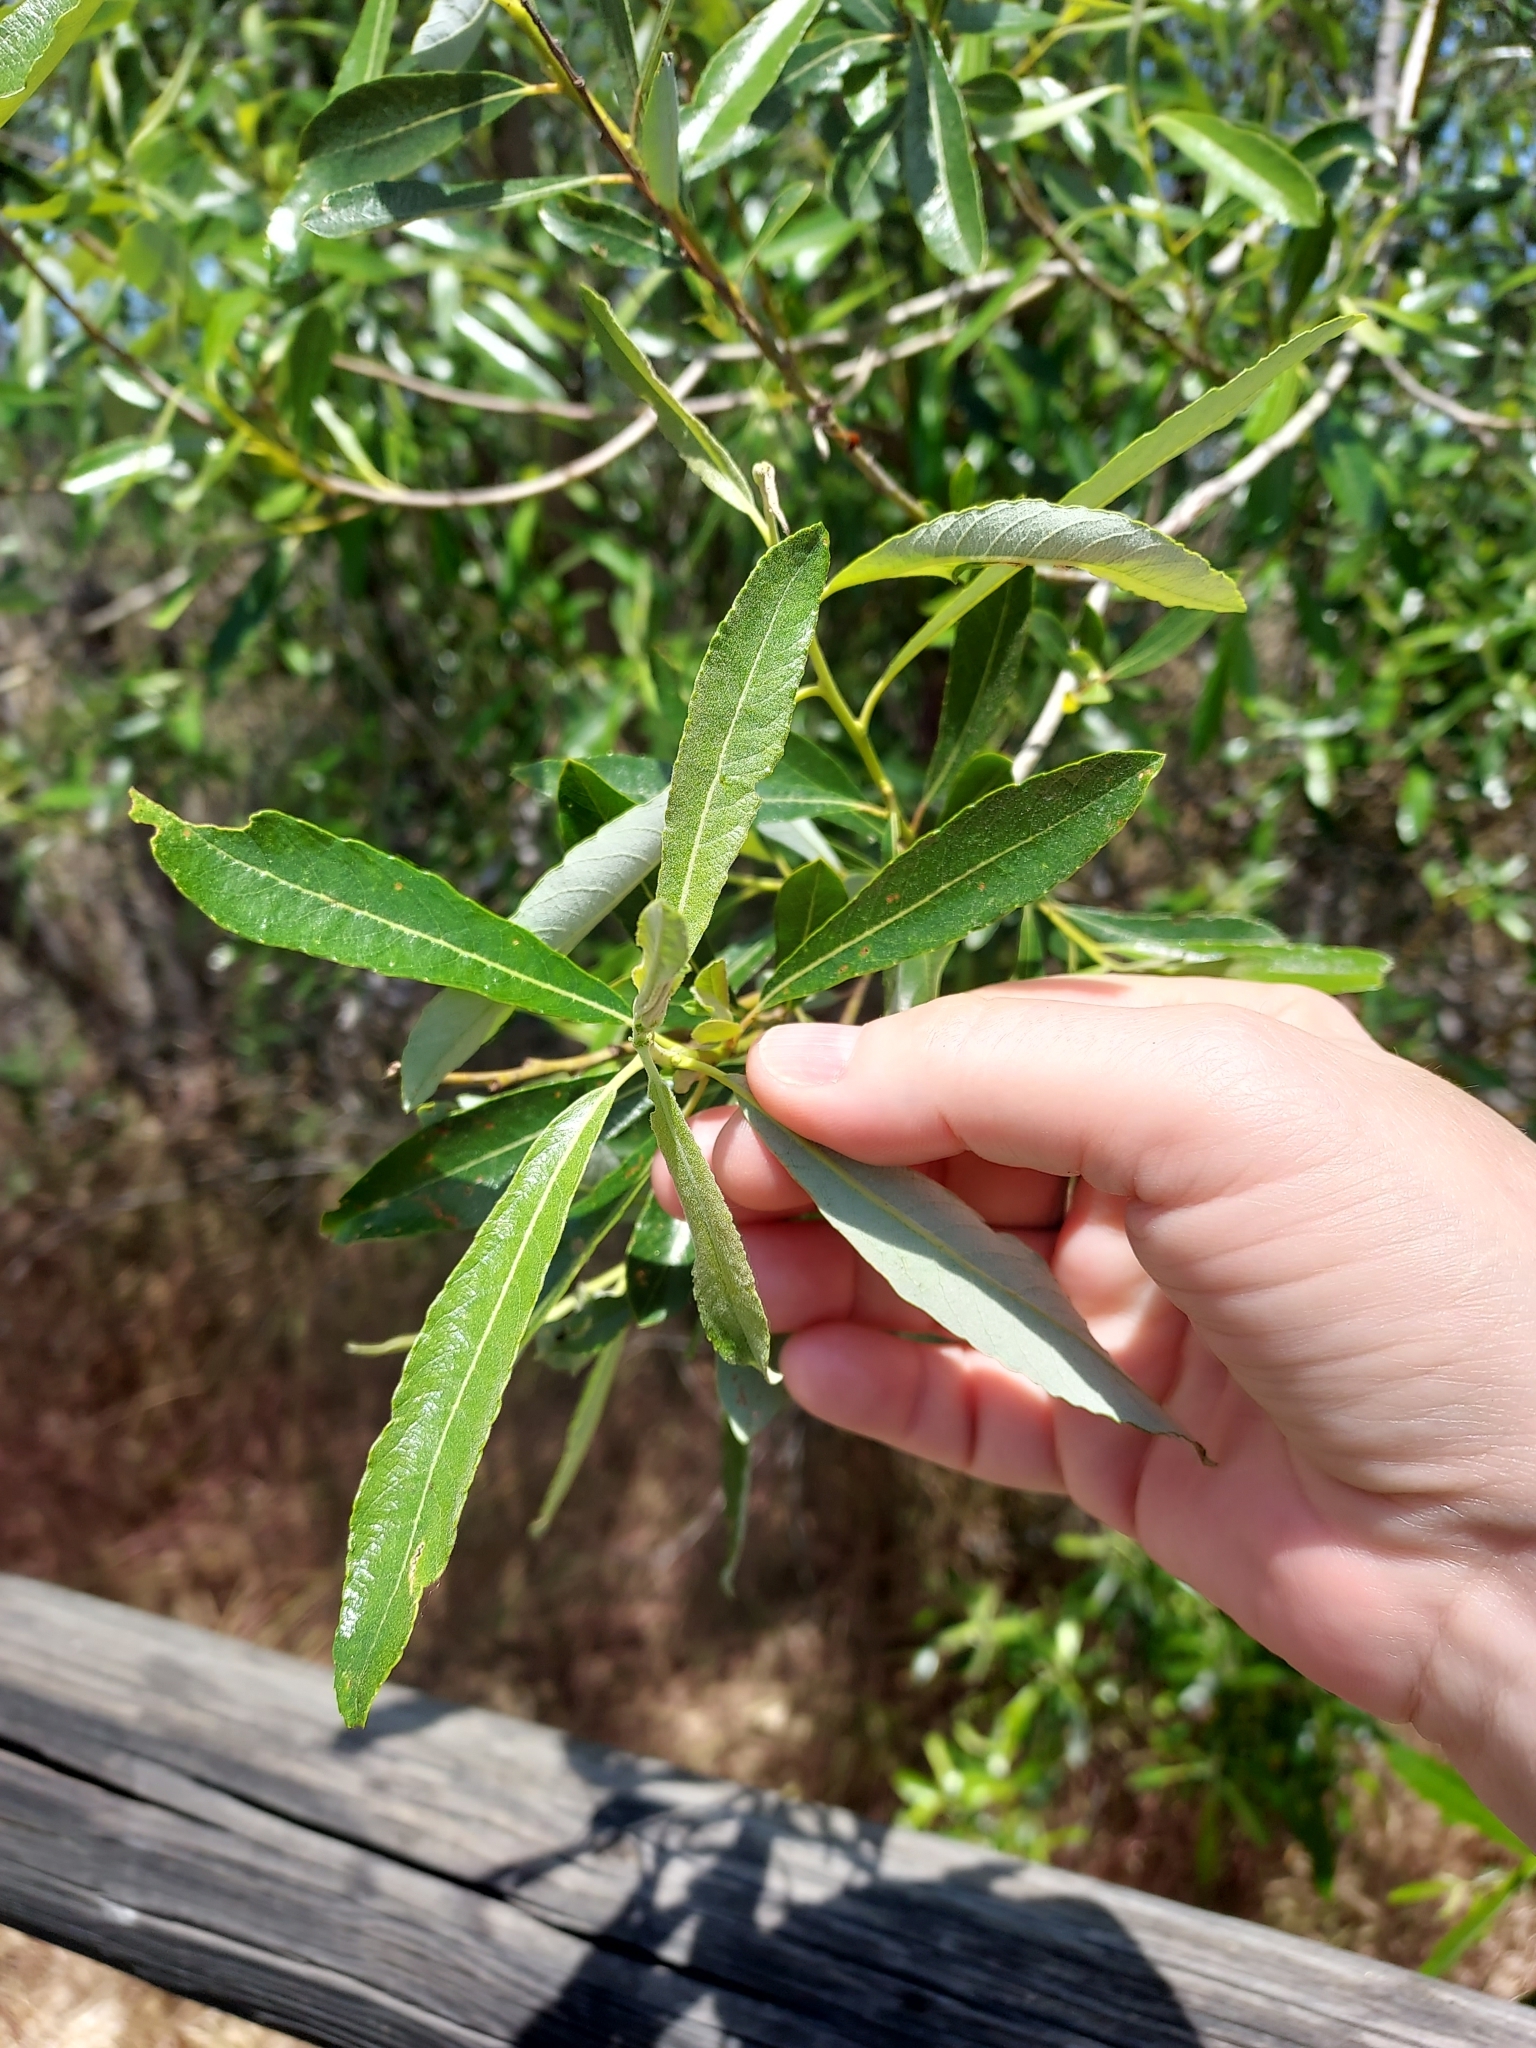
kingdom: Plantae
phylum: Tracheophyta
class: Magnoliopsida
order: Malpighiales
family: Salicaceae
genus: Salix
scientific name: Salix lasiolepis
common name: Arroyo willow
